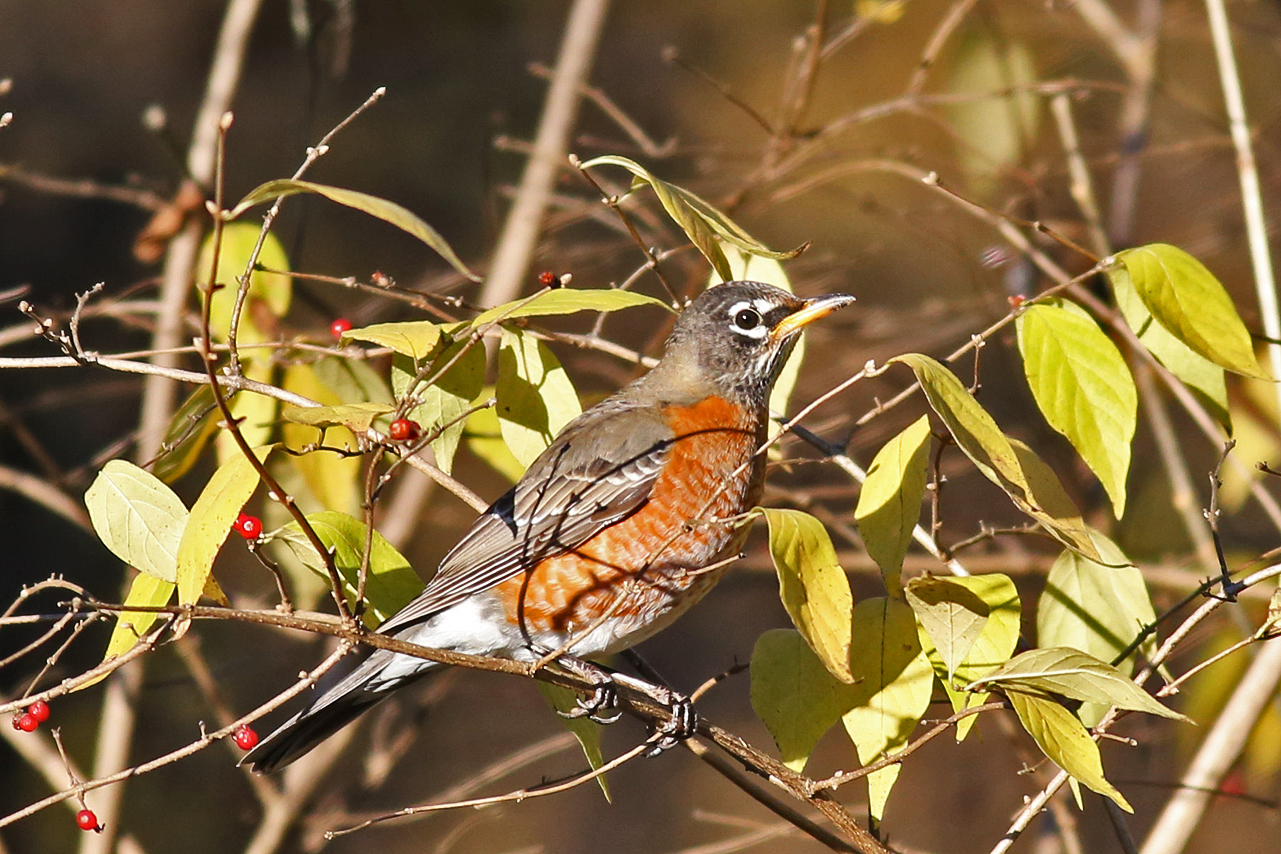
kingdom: Animalia
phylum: Chordata
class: Aves
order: Passeriformes
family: Turdidae
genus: Turdus
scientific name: Turdus migratorius
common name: American robin
